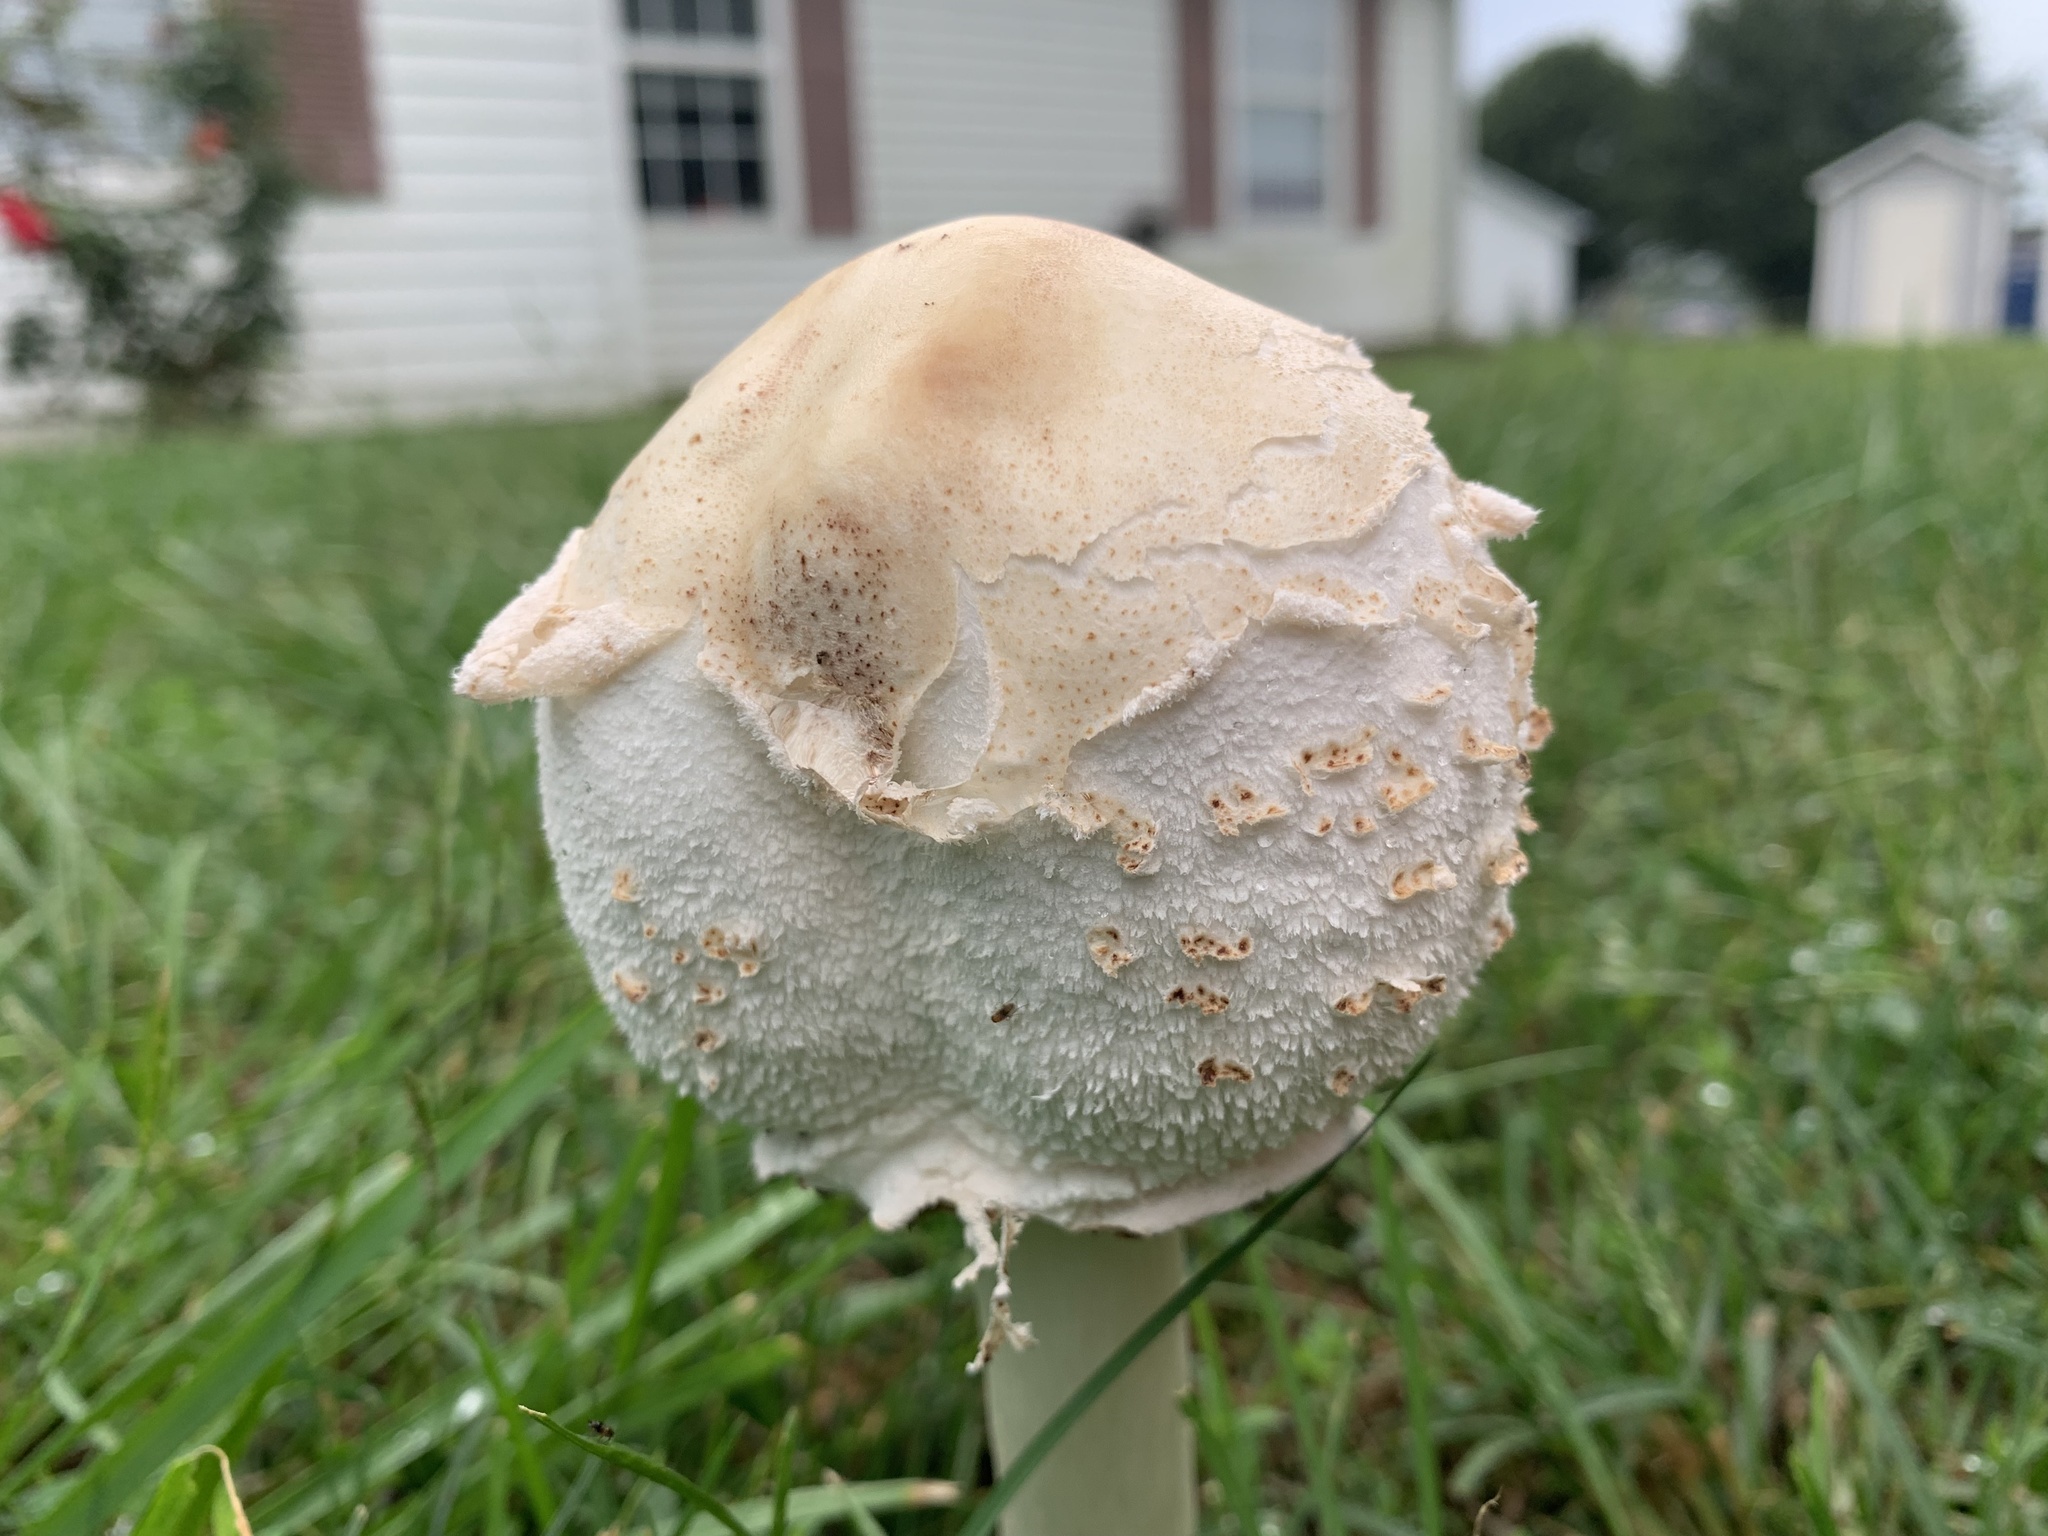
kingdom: Fungi
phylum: Basidiomycota
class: Agaricomycetes
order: Agaricales
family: Agaricaceae
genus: Chlorophyllum
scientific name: Chlorophyllum molybdites
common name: False parasol
